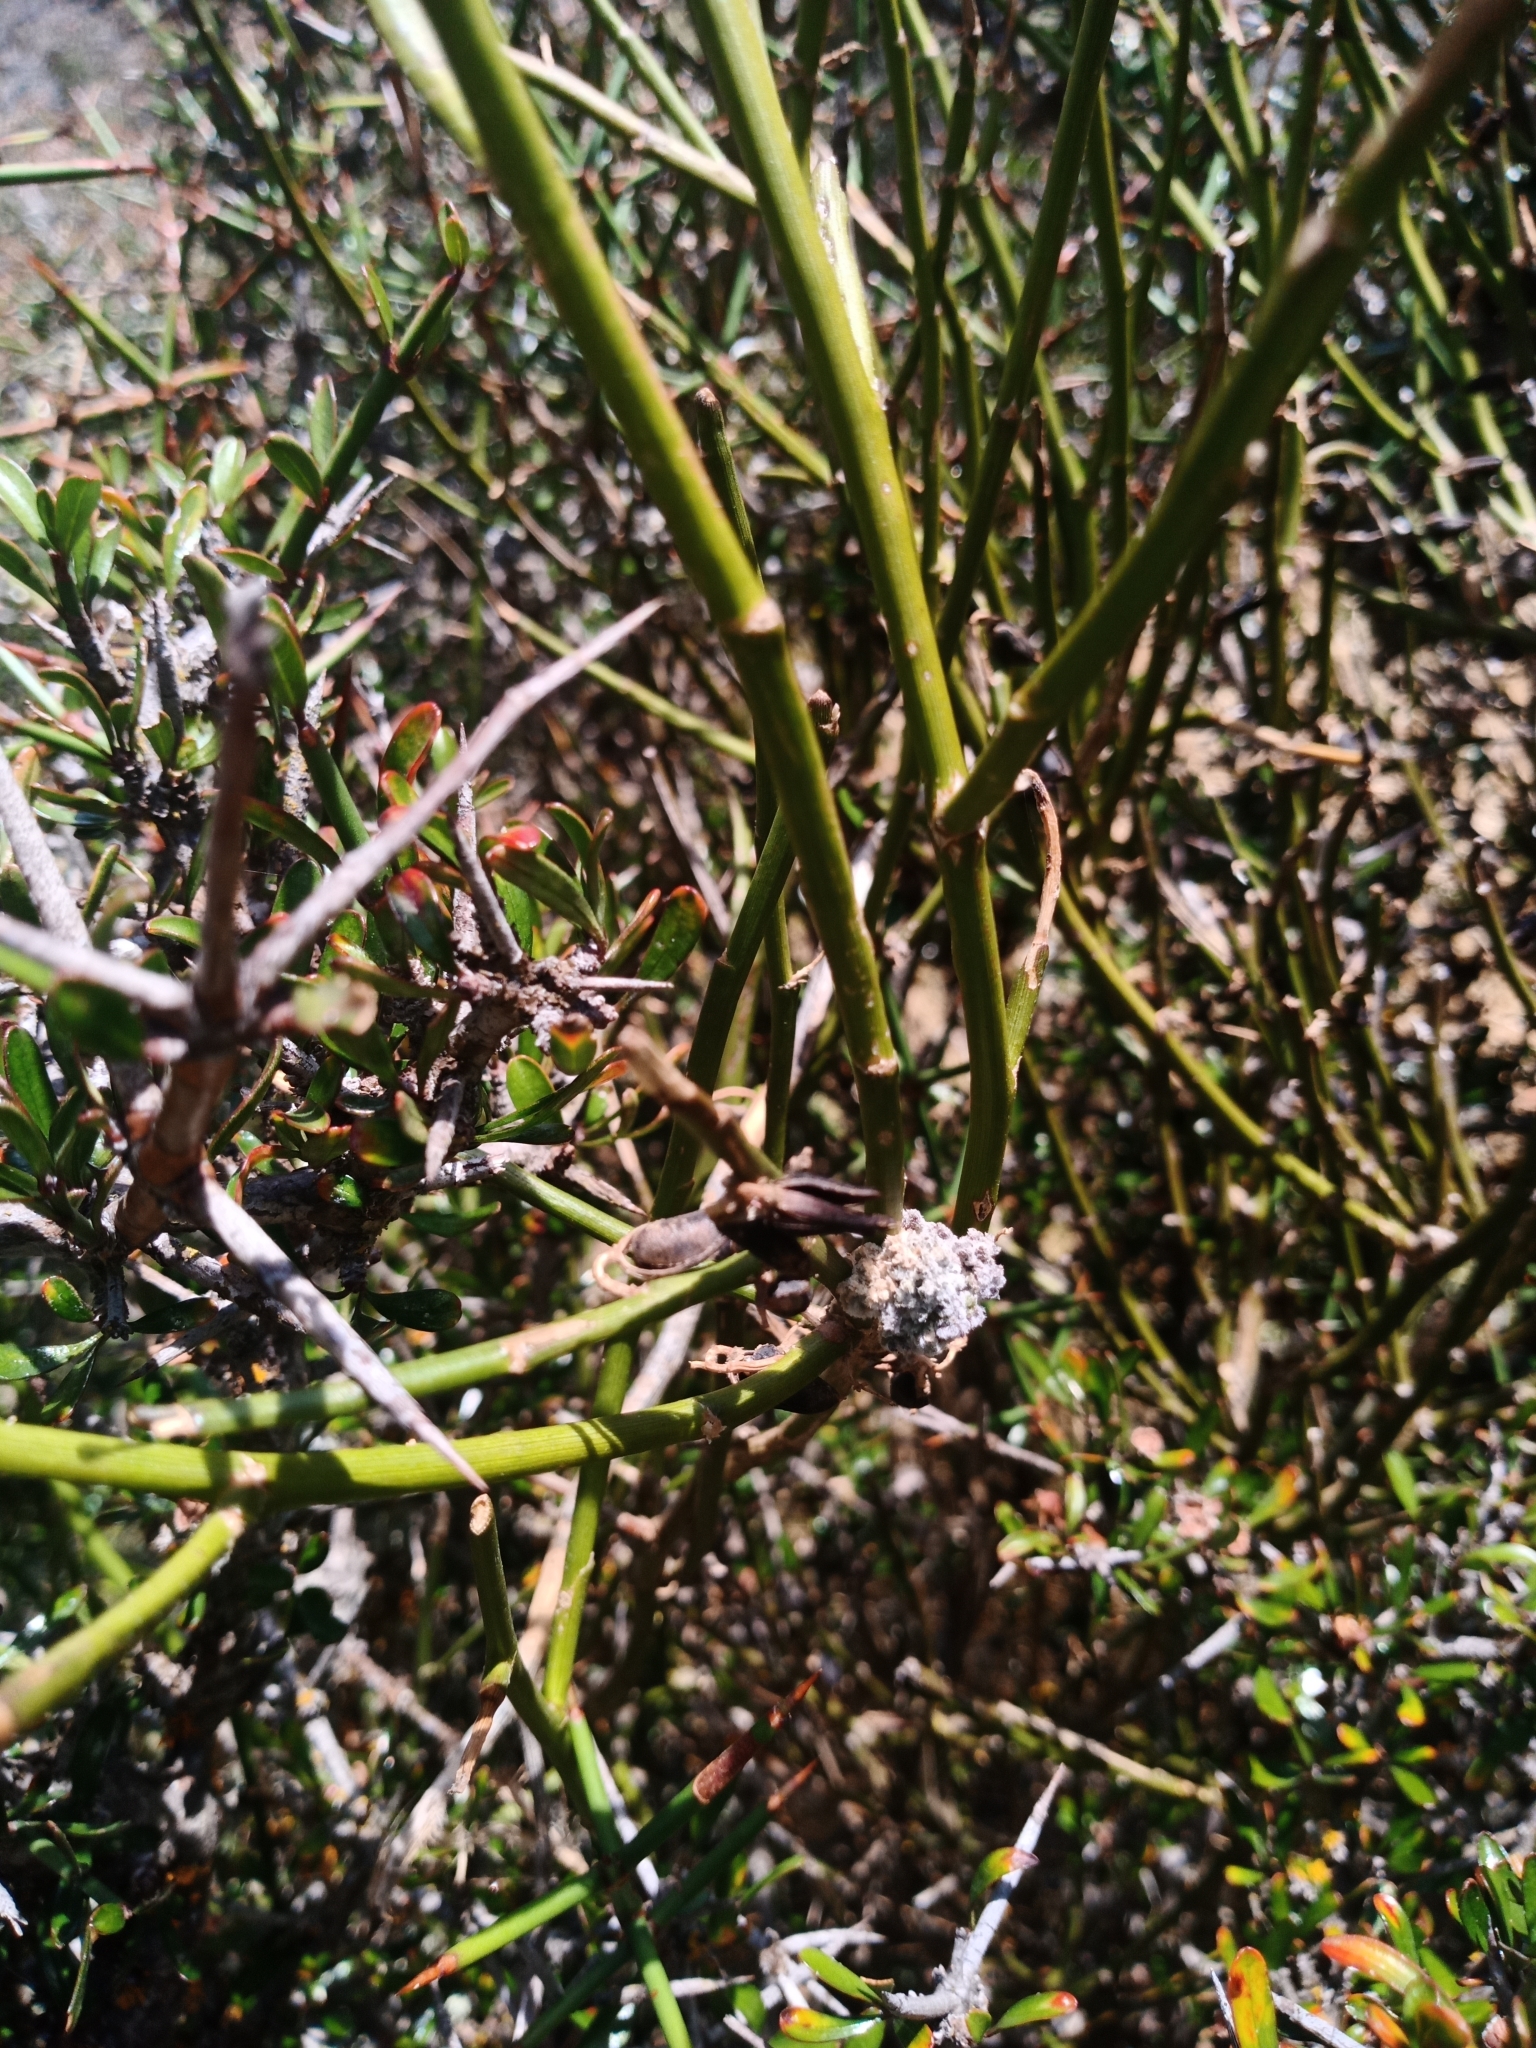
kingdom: Animalia
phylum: Arthropoda
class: Arachnida
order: Trombidiformes
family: Eriophyidae
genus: Aceria
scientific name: Aceria carmichaeliae
